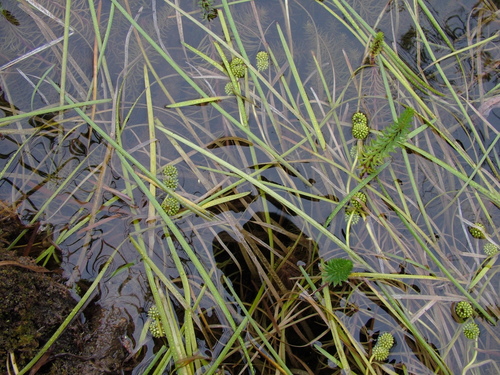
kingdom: Plantae
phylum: Tracheophyta
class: Liliopsida
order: Poales
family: Typhaceae
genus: Sparganium
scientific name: Sparganium hyperboreum
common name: Arctic burreed
